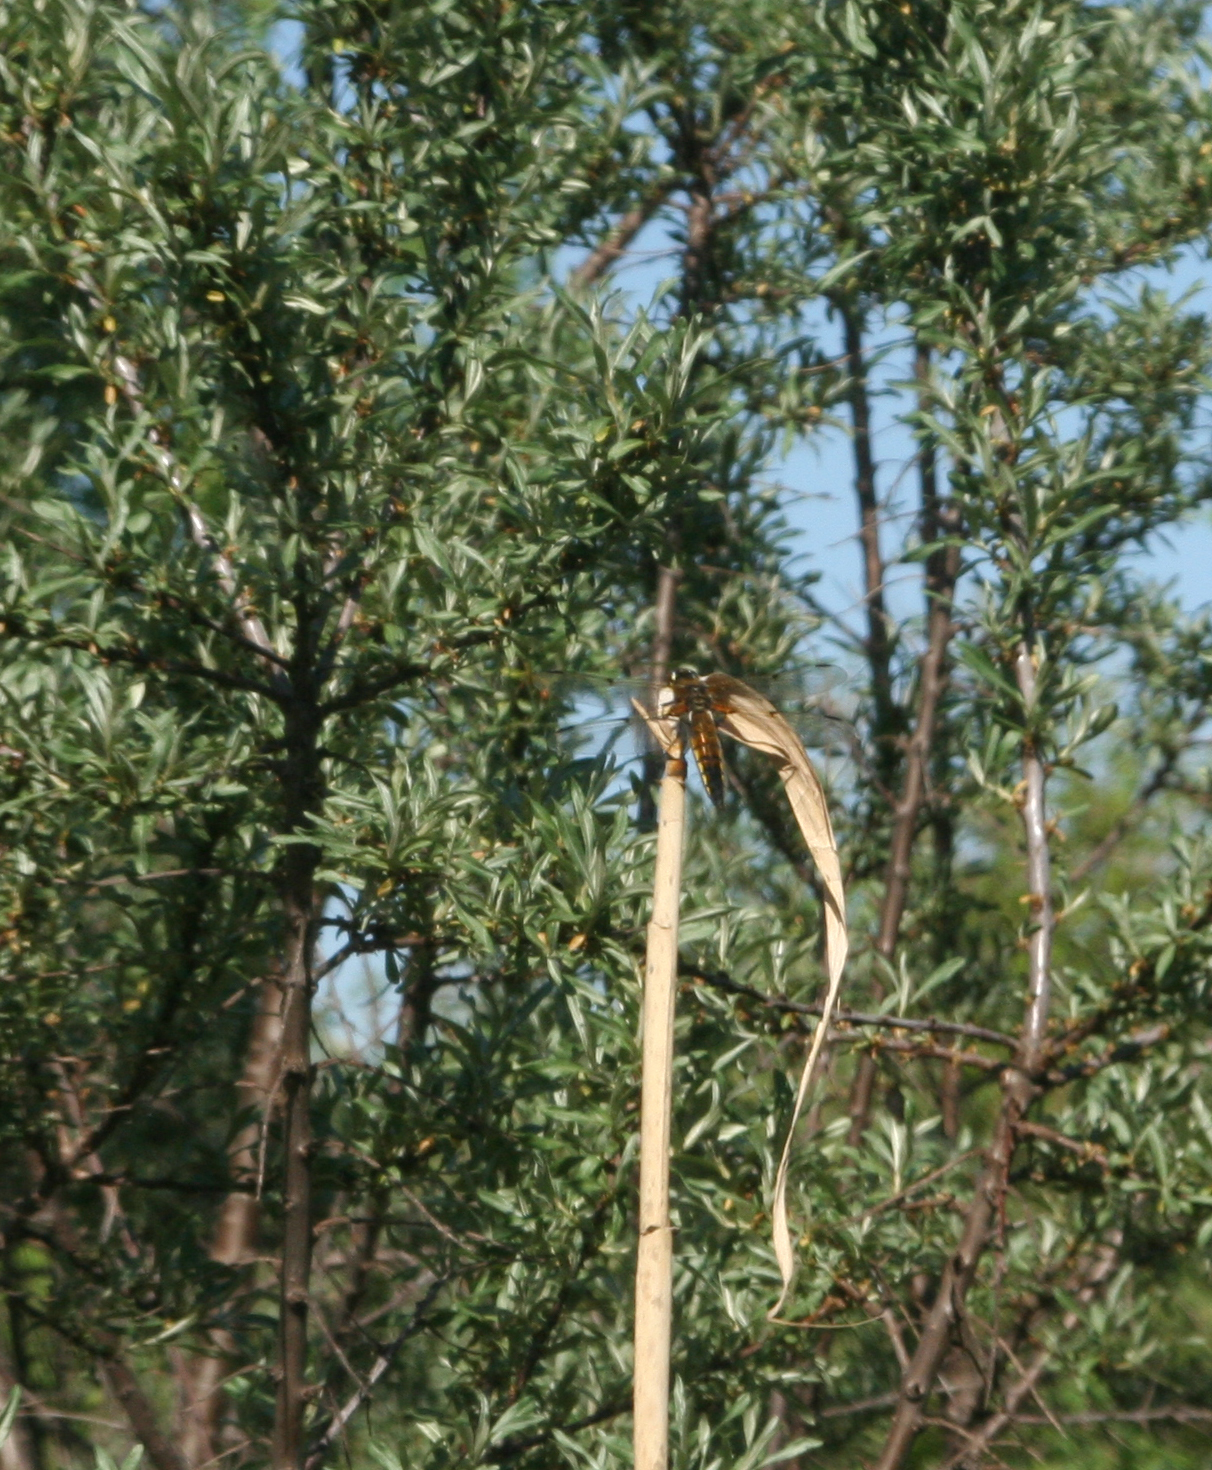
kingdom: Animalia
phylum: Arthropoda
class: Insecta
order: Odonata
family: Libellulidae
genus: Libellula
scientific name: Libellula quadrimaculata
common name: Four-spotted chaser
